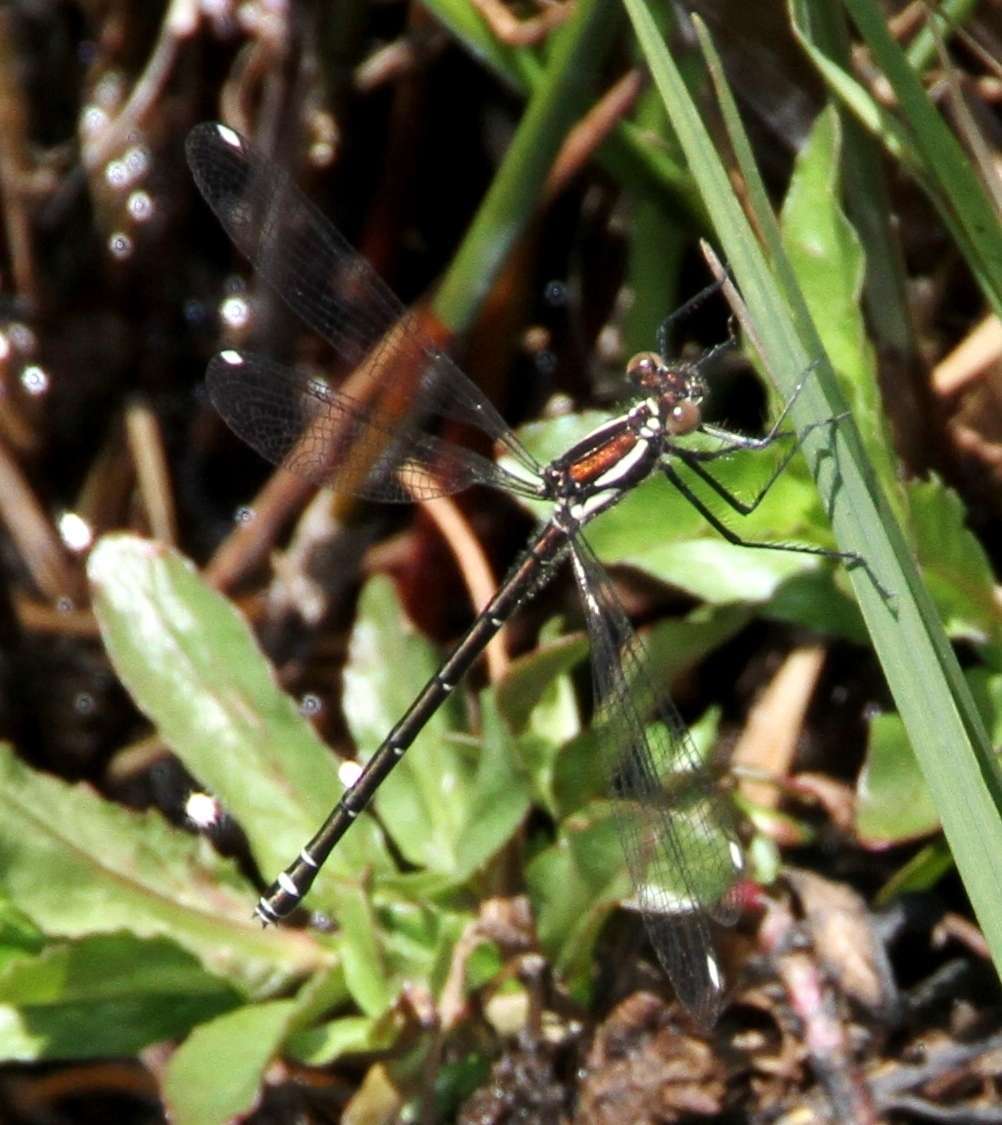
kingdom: Animalia
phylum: Arthropoda
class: Insecta
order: Odonata
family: Argiolestidae
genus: Austroargiolestes
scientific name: Austroargiolestes calcaris
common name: Powdered flatwing
